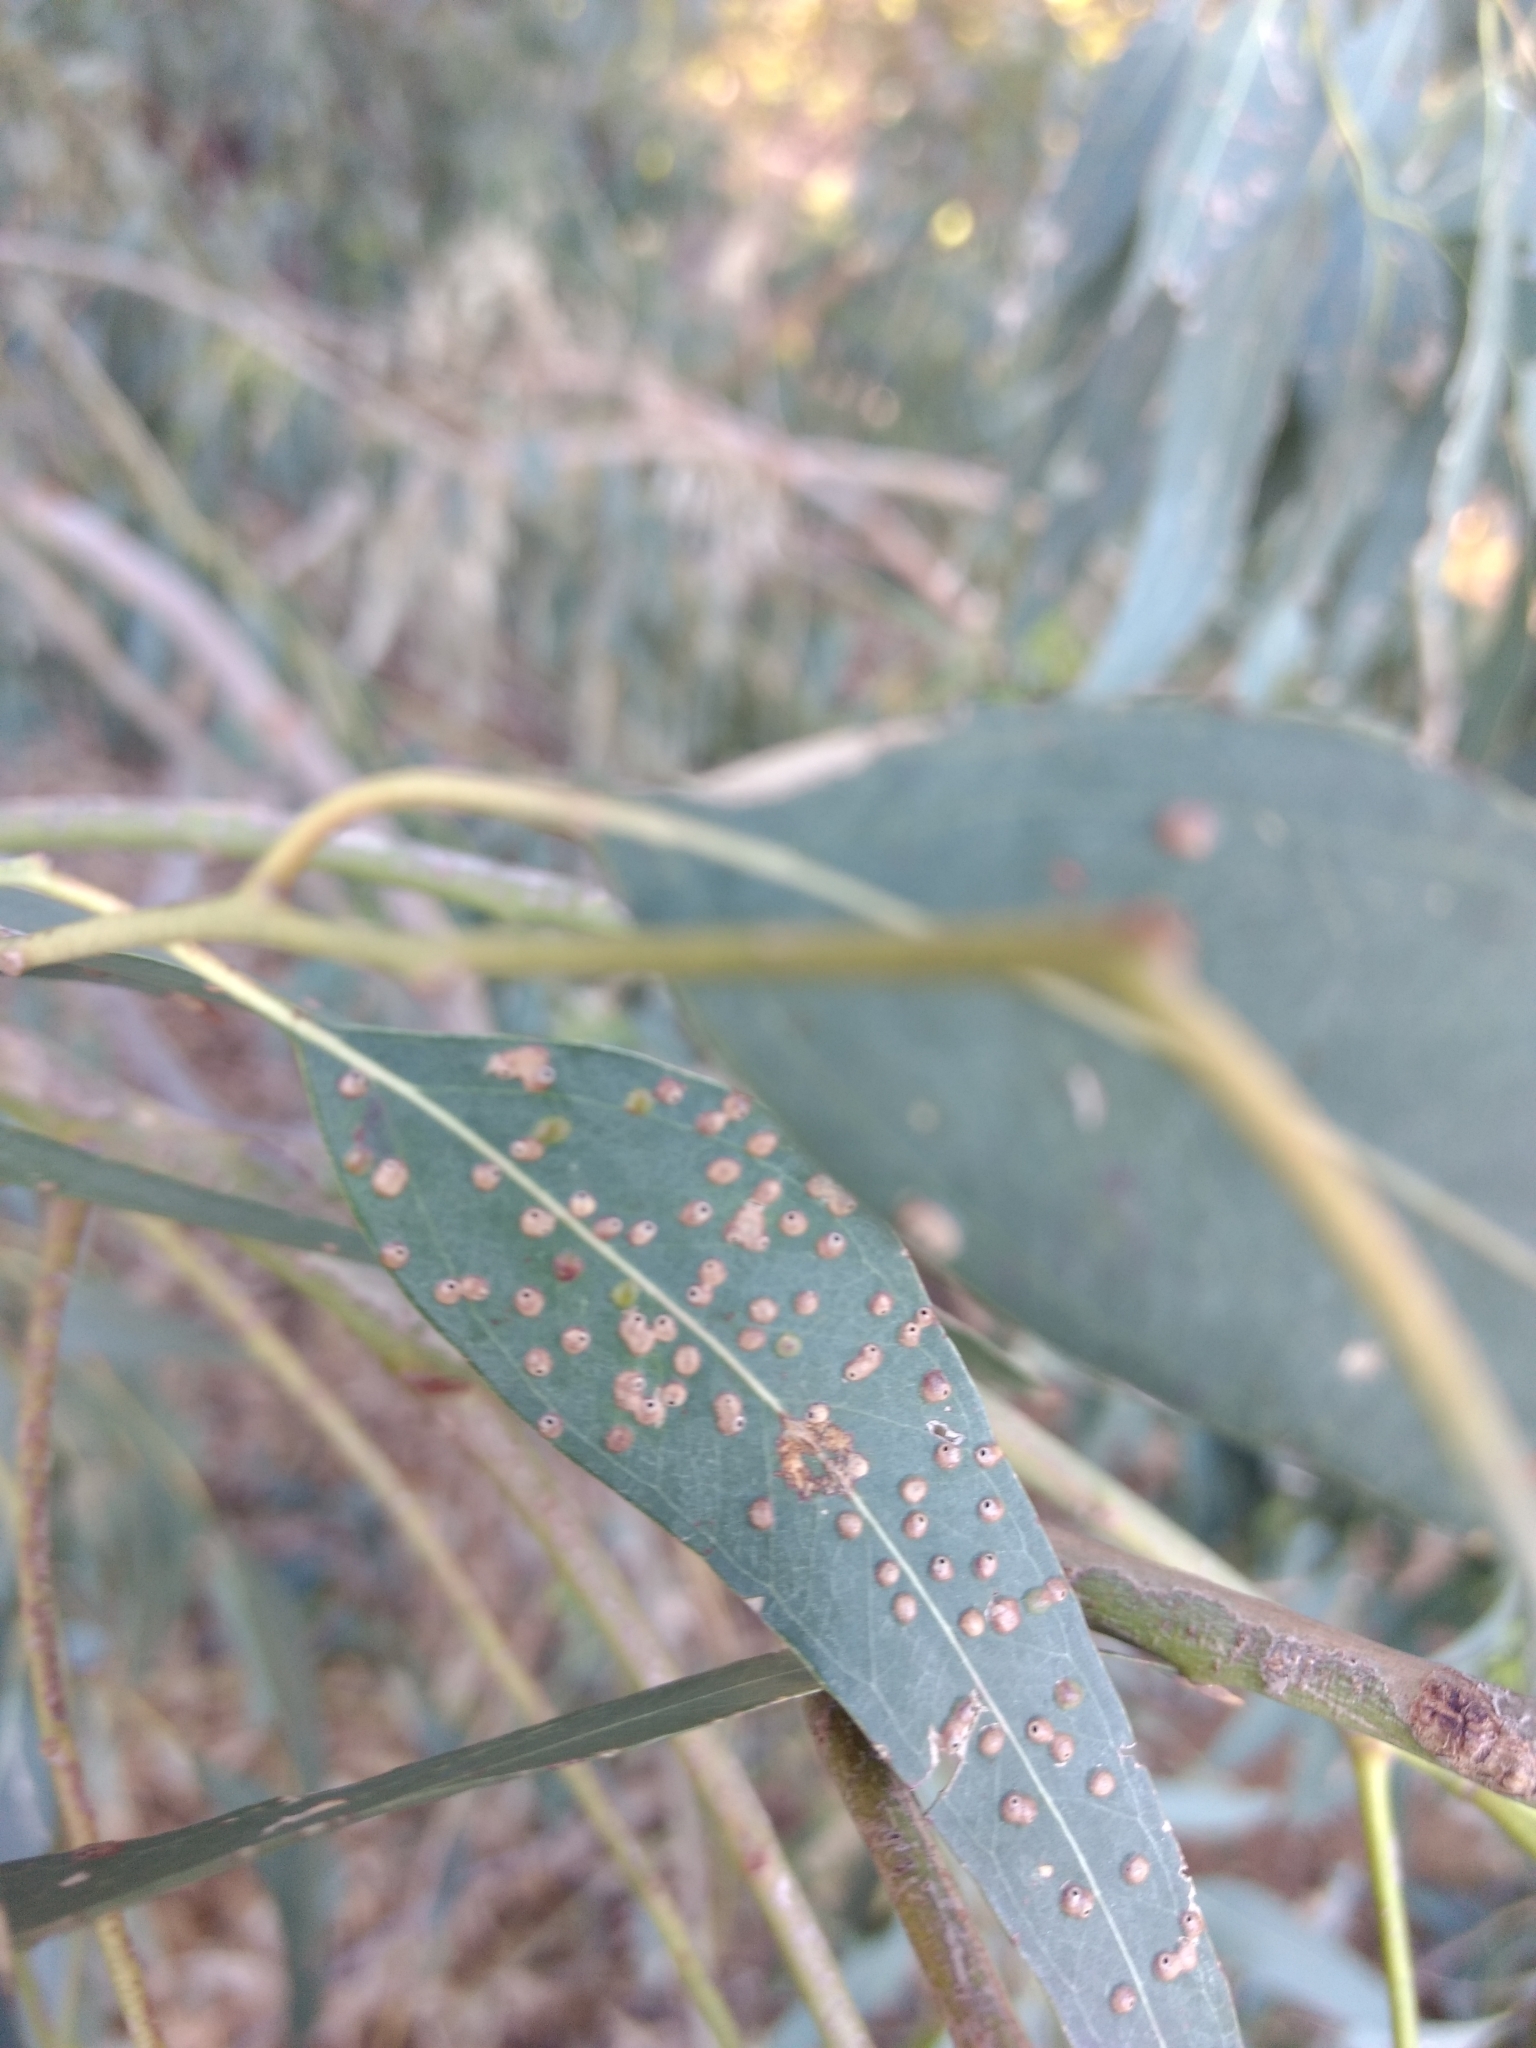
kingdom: Animalia
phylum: Arthropoda
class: Insecta
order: Hymenoptera
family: Eulophidae
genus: Ophelimus
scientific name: Ophelimus maskelli
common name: Gall wasp
